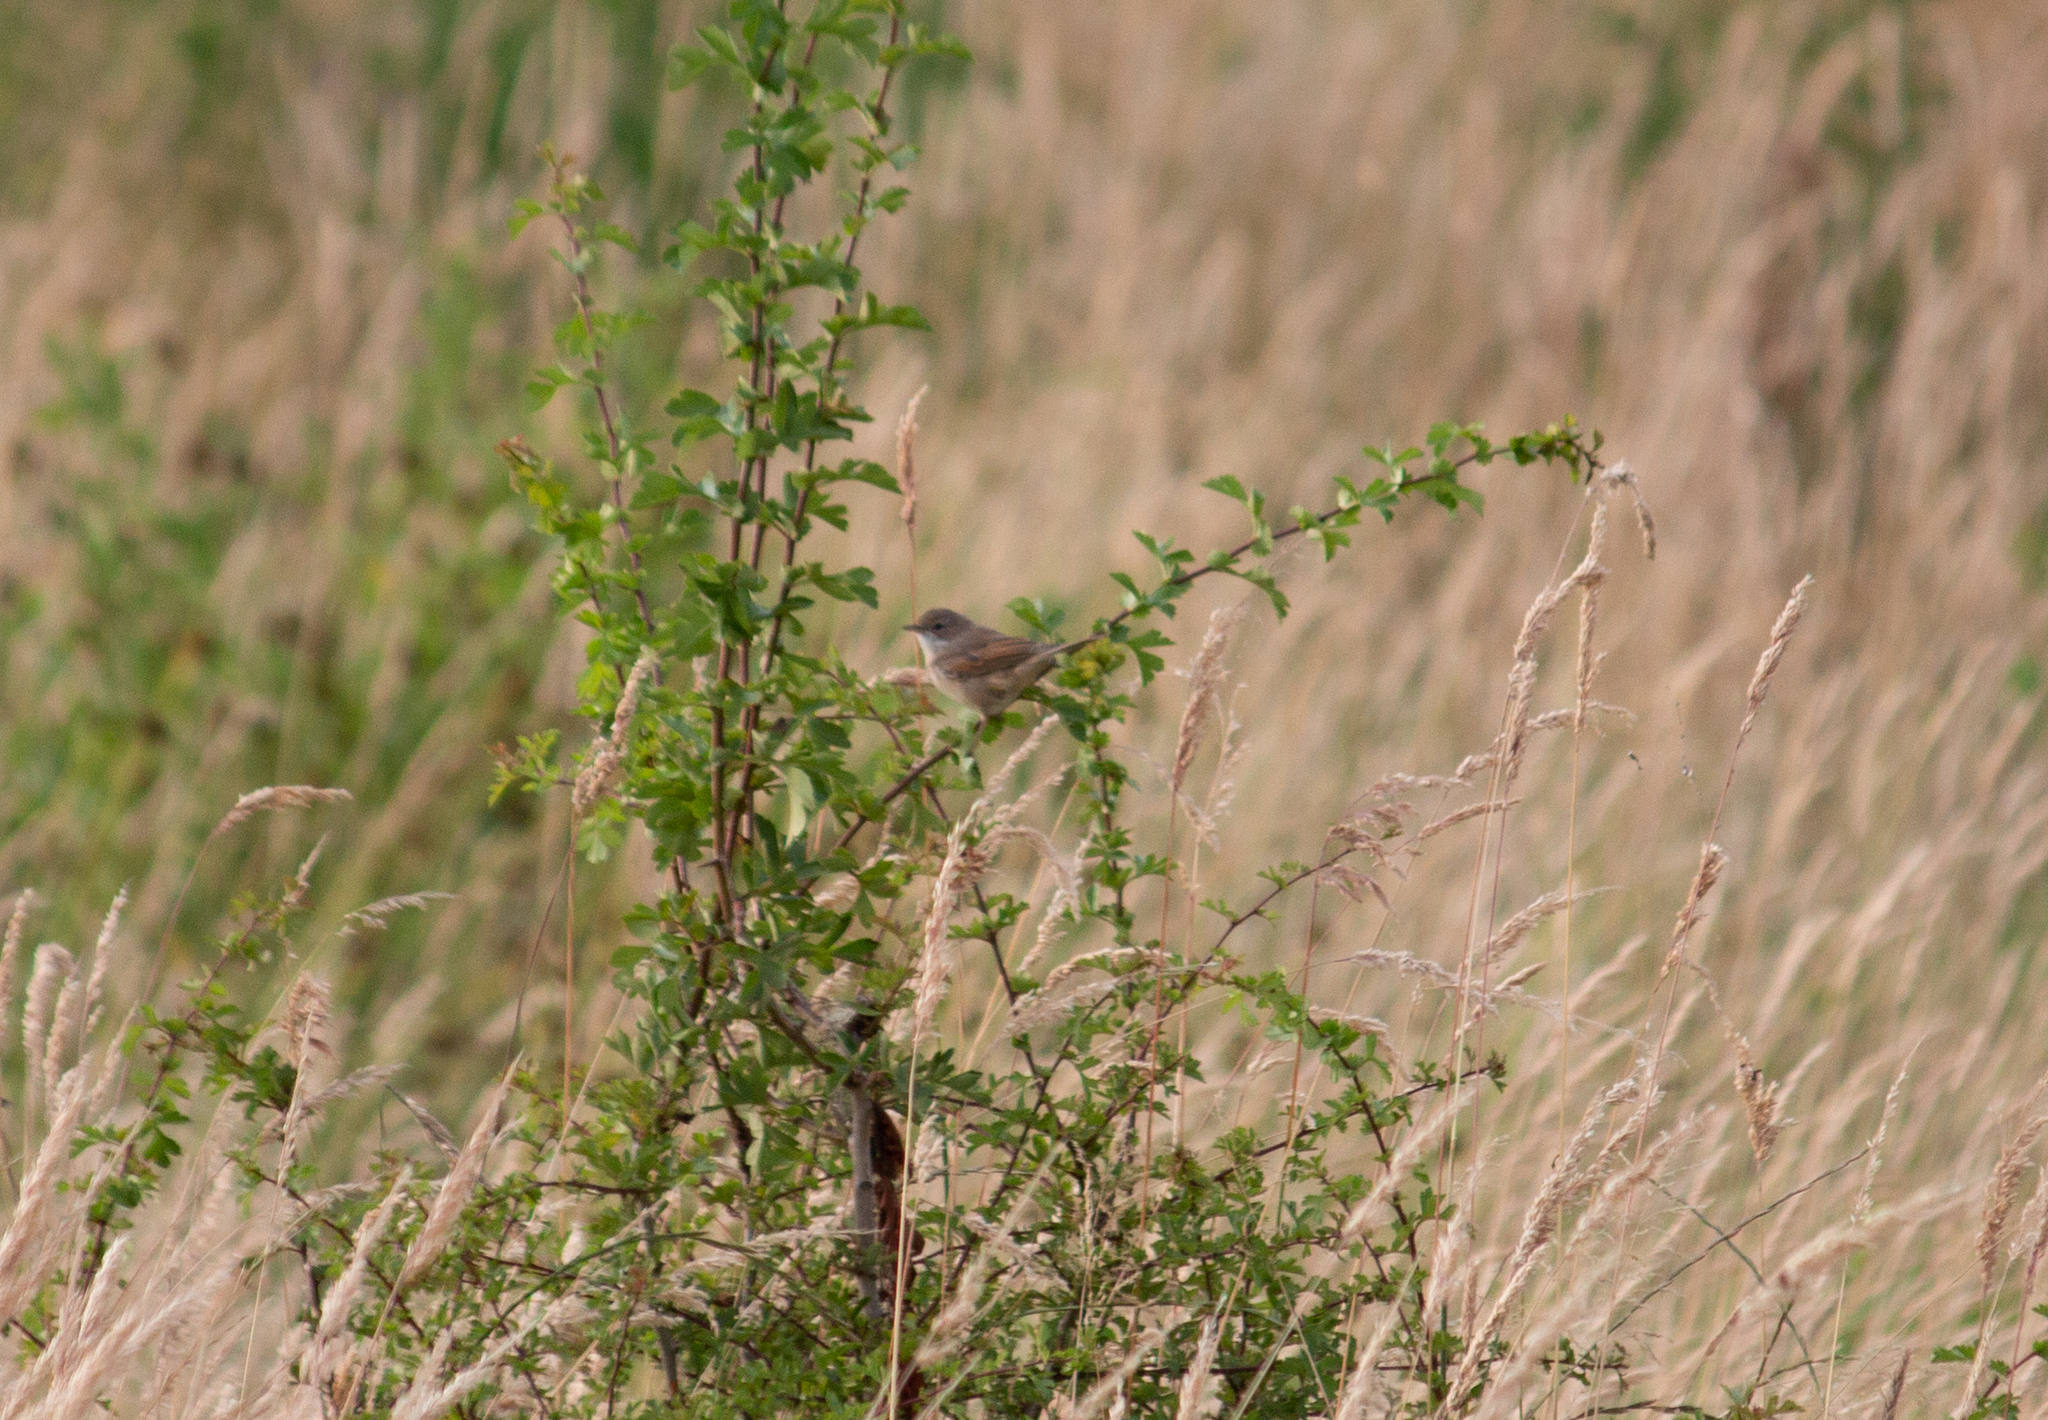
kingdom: Animalia
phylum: Chordata
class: Aves
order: Passeriformes
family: Sylviidae
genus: Sylvia
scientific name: Sylvia communis
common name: Common whitethroat
